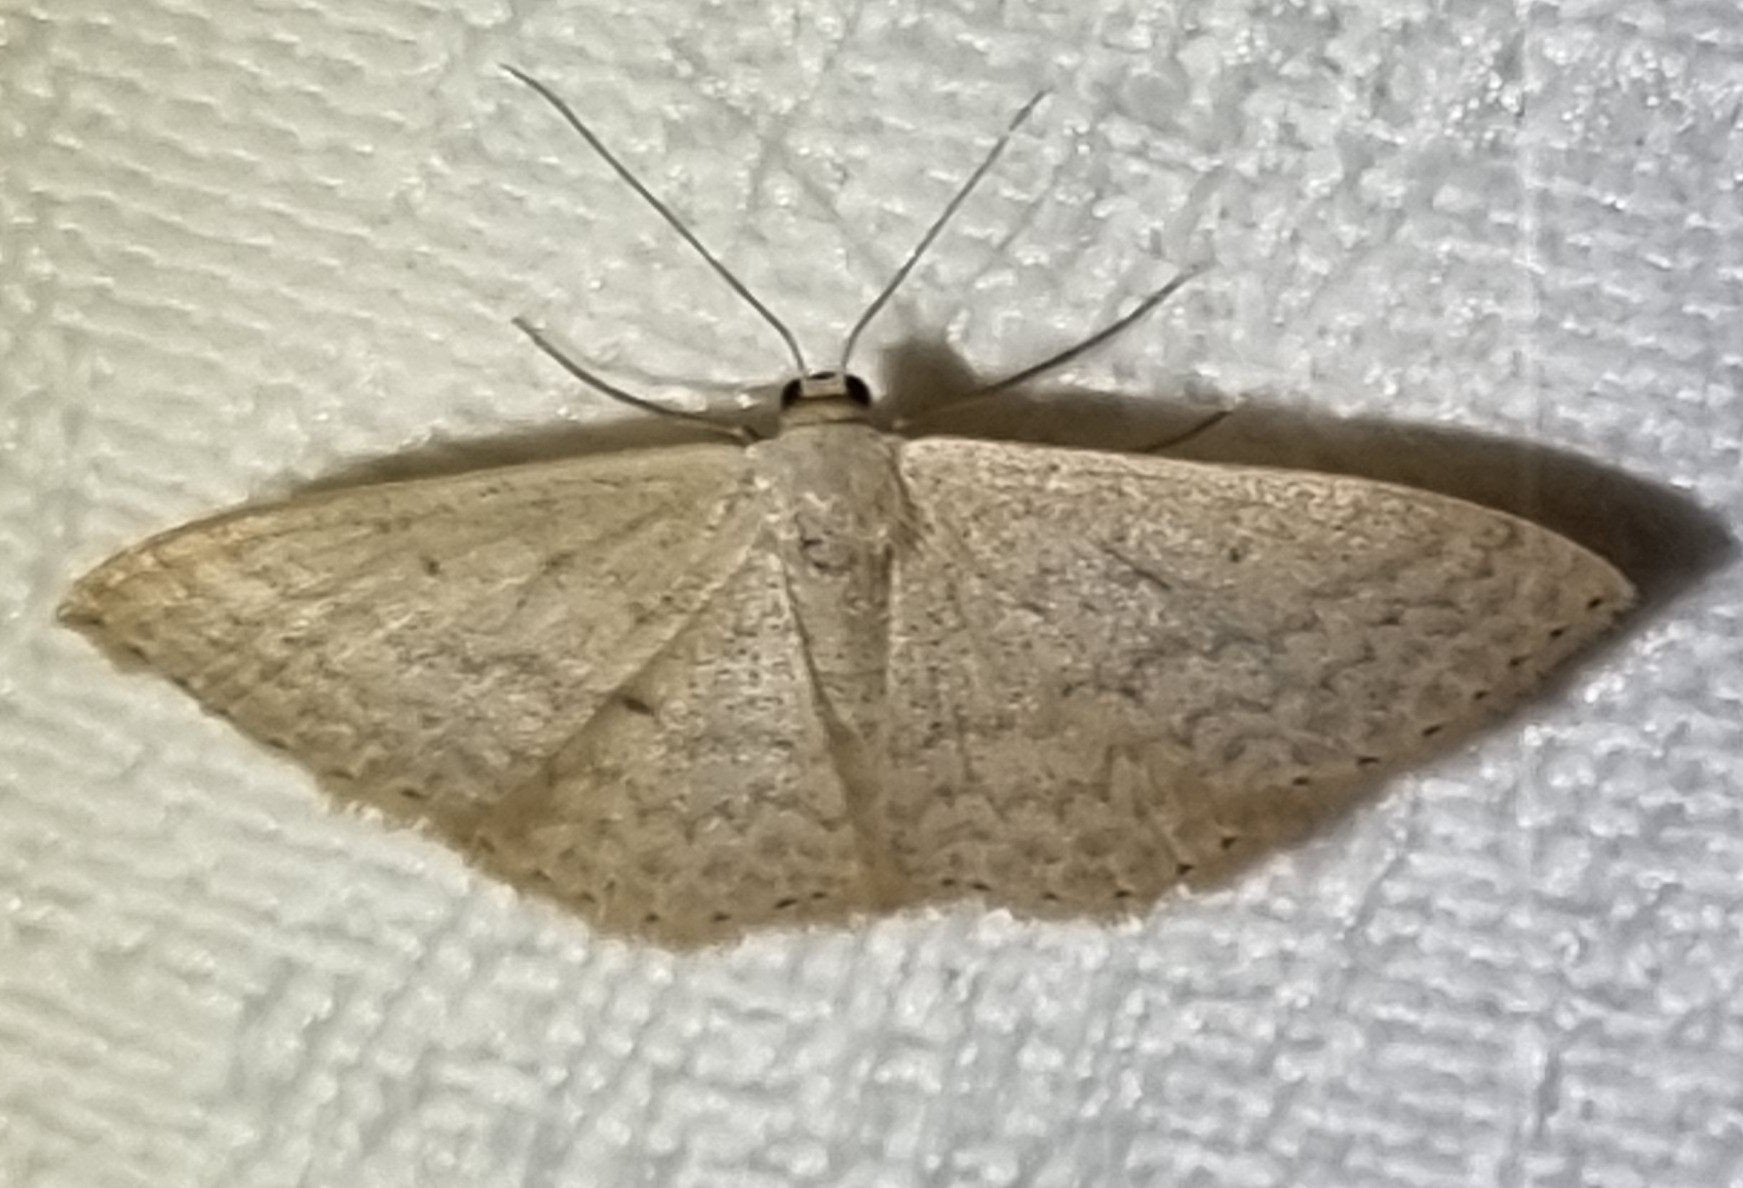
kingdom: Animalia
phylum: Arthropoda
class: Insecta
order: Lepidoptera
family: Geometridae
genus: Scopula
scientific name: Scopula optivata
